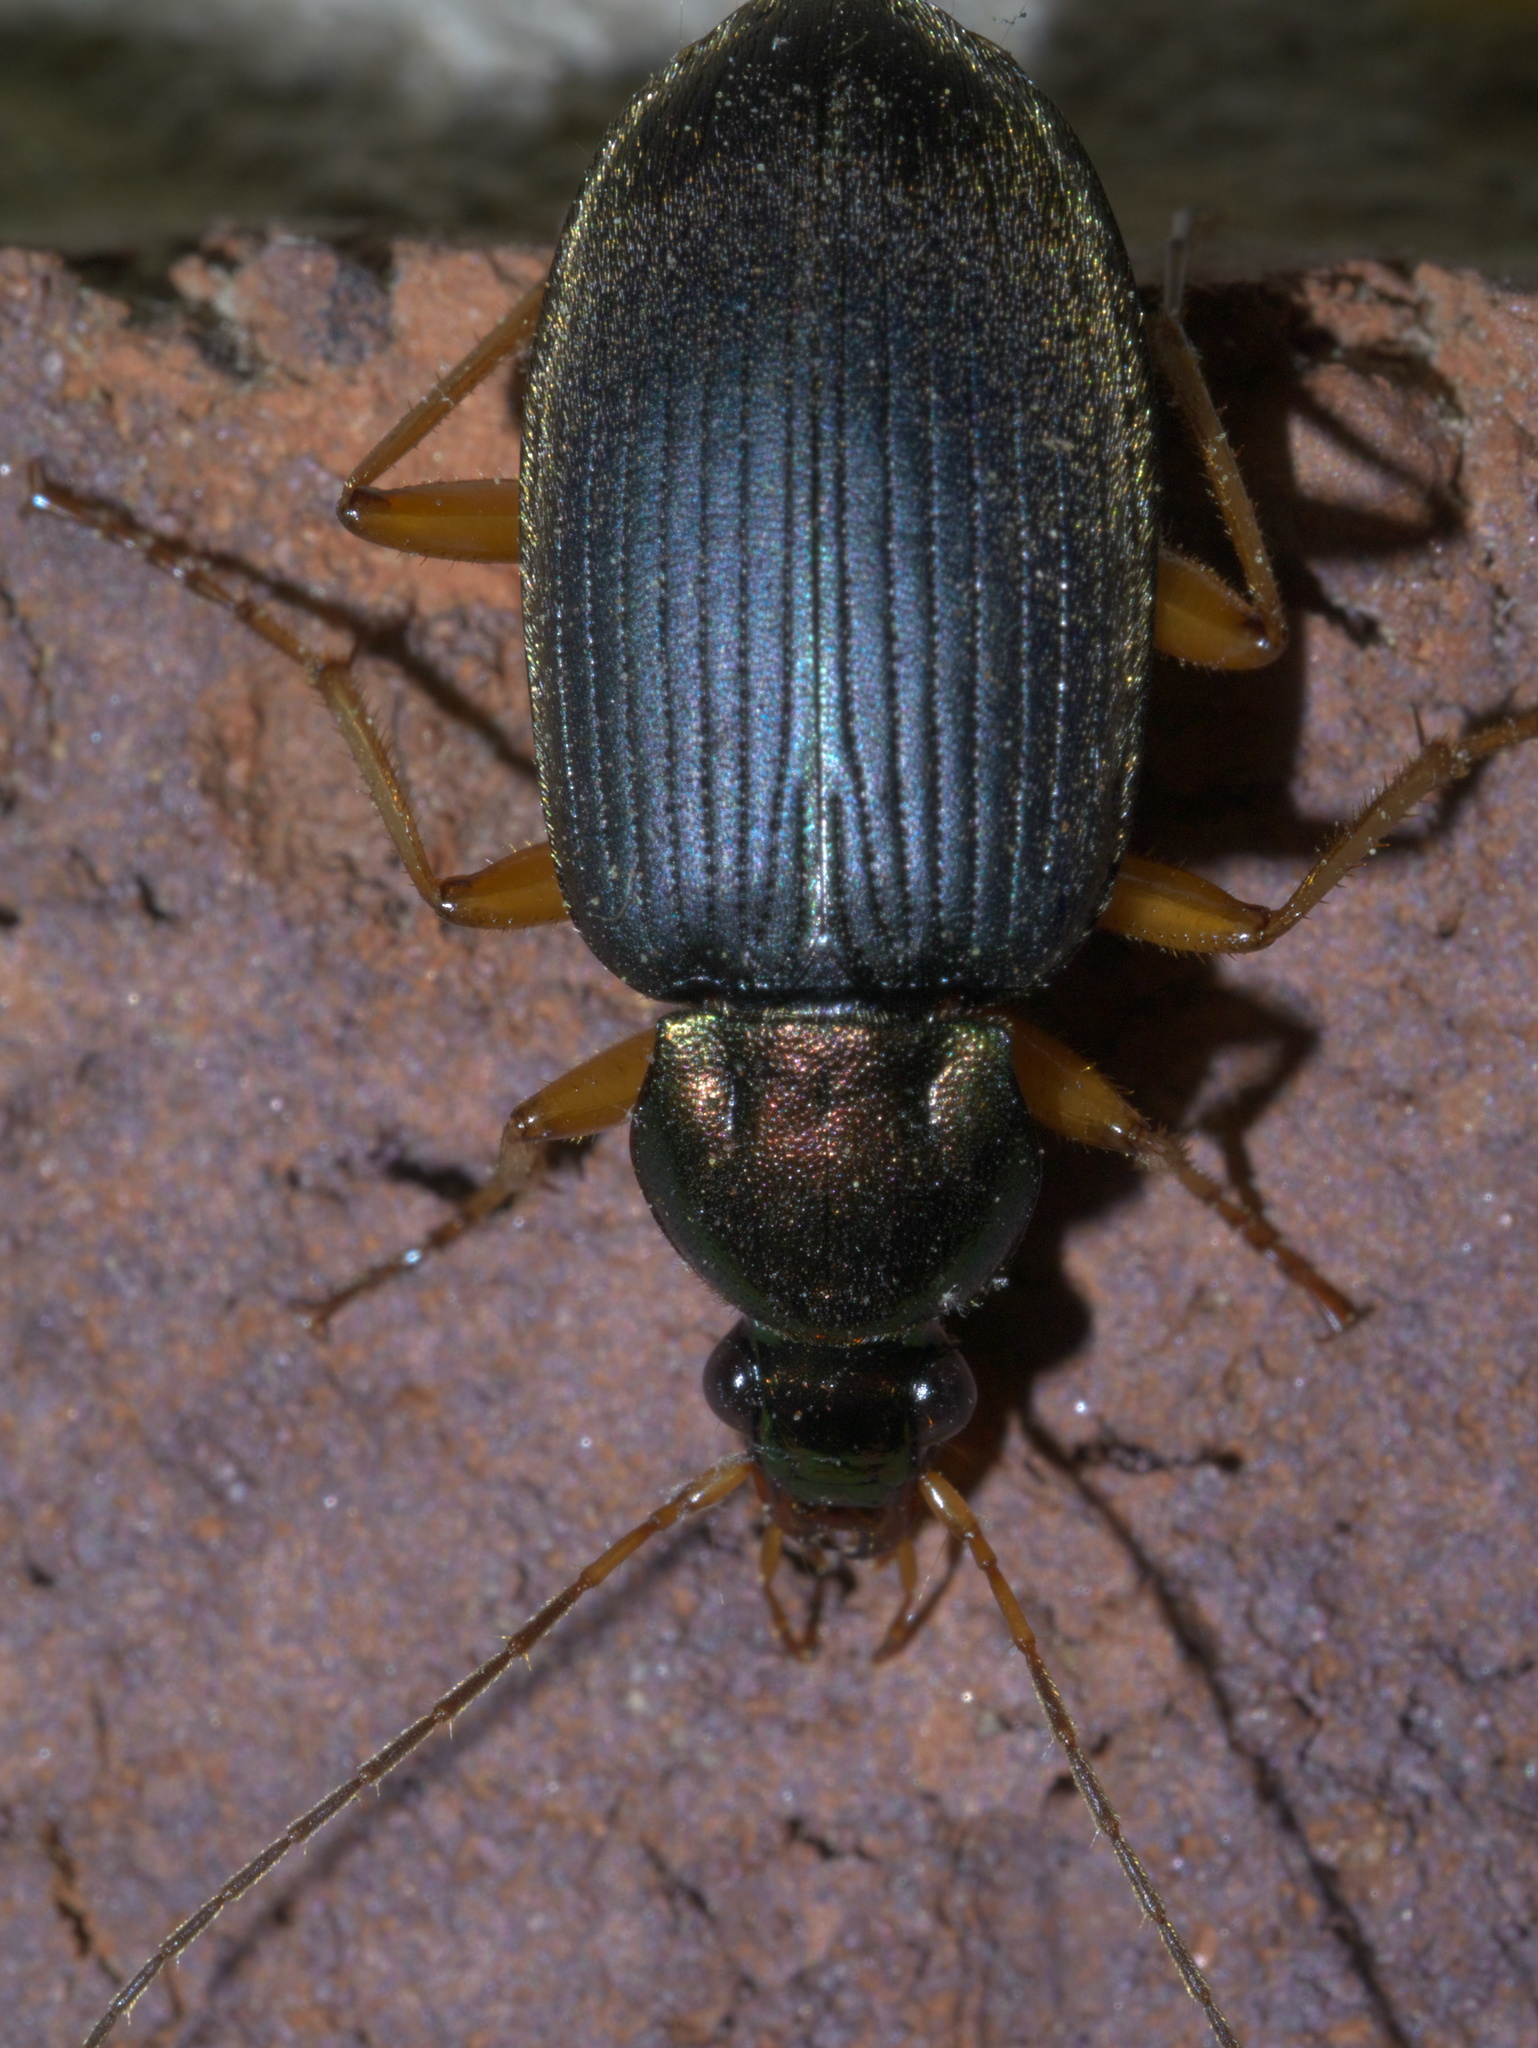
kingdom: Animalia
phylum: Arthropoda
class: Insecta
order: Coleoptera
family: Carabidae
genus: Chlaenius
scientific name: Chlaenius tricolor
